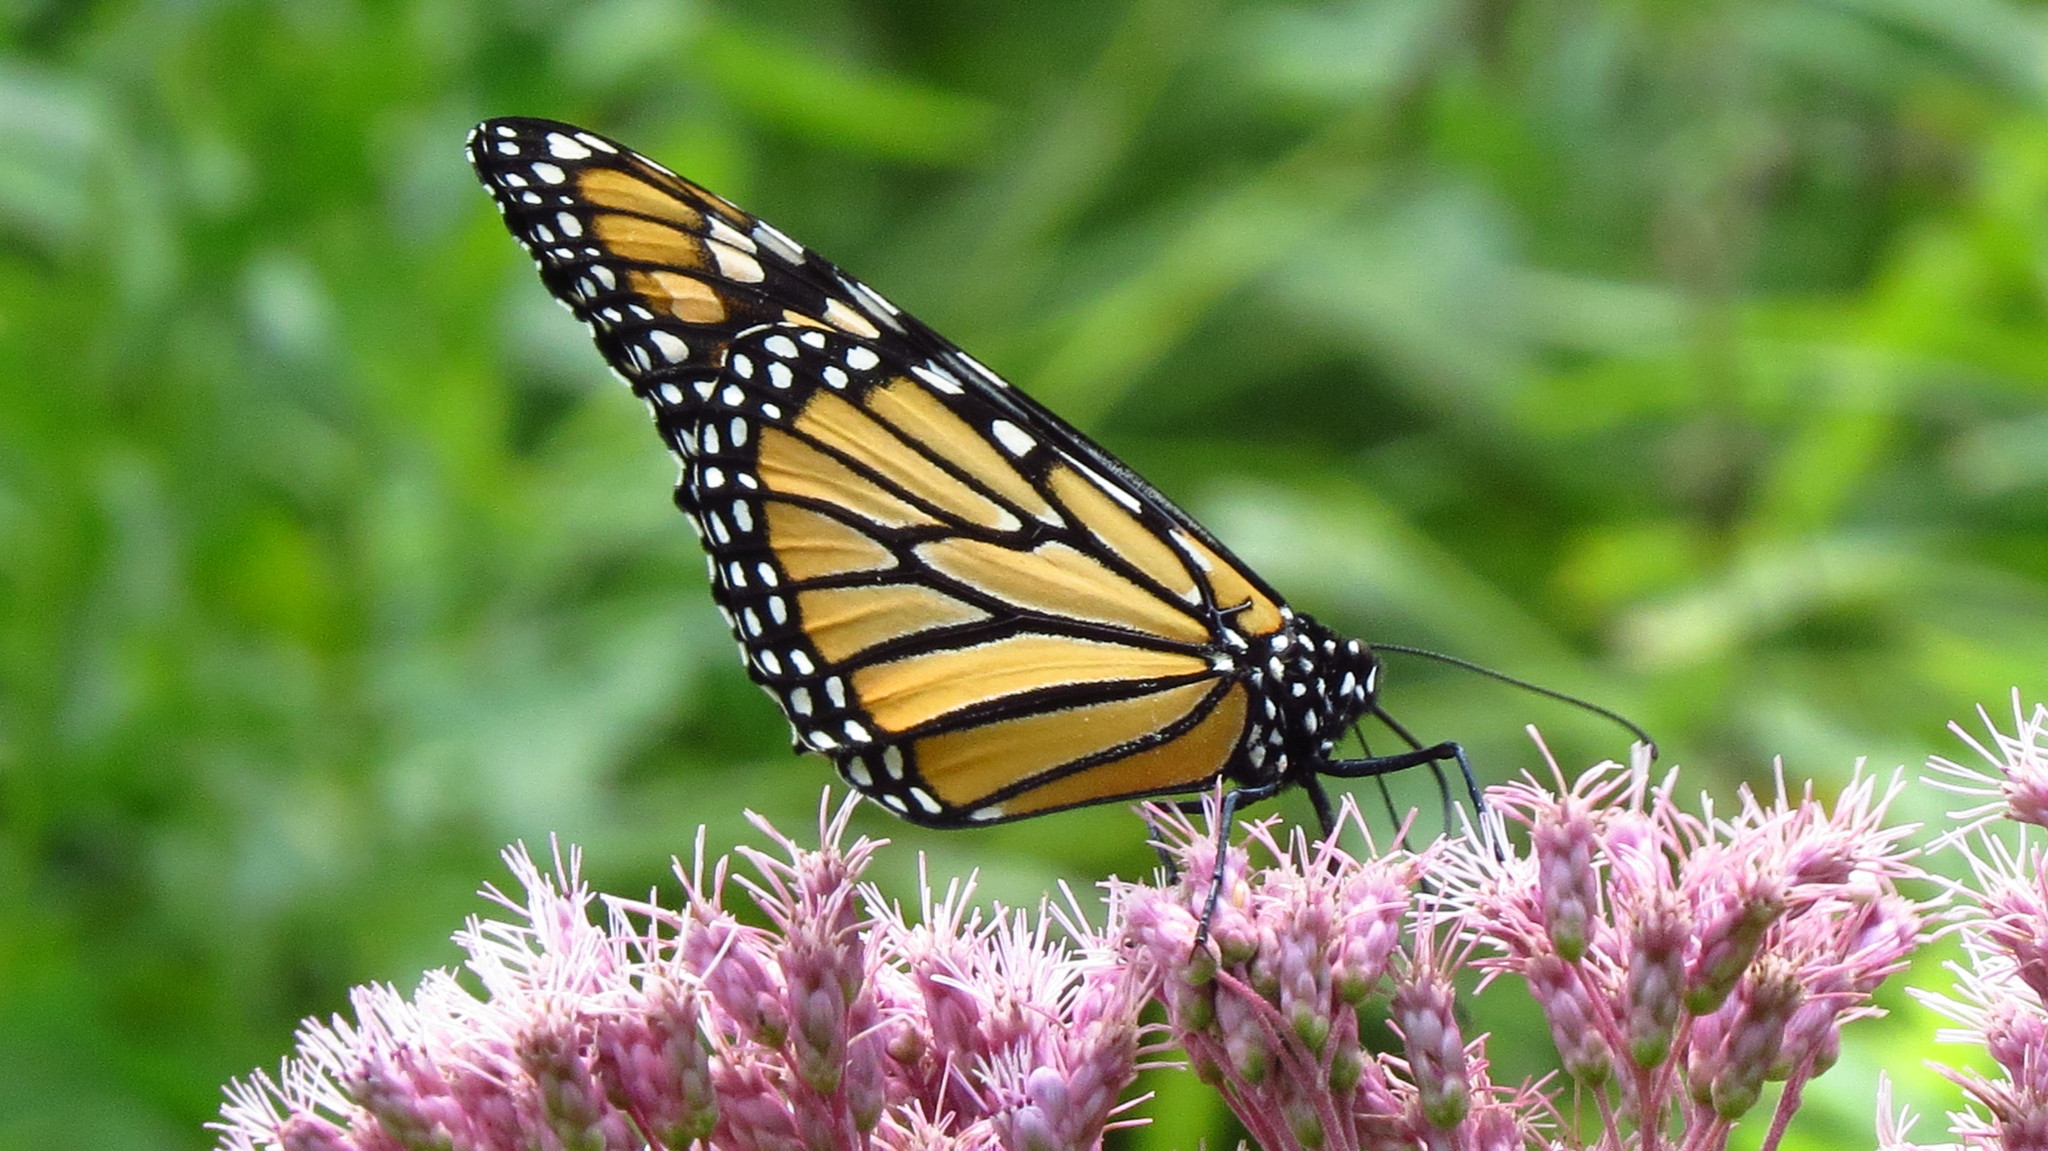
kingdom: Animalia
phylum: Arthropoda
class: Insecta
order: Lepidoptera
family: Nymphalidae
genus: Danaus
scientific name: Danaus plexippus
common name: Monarch
